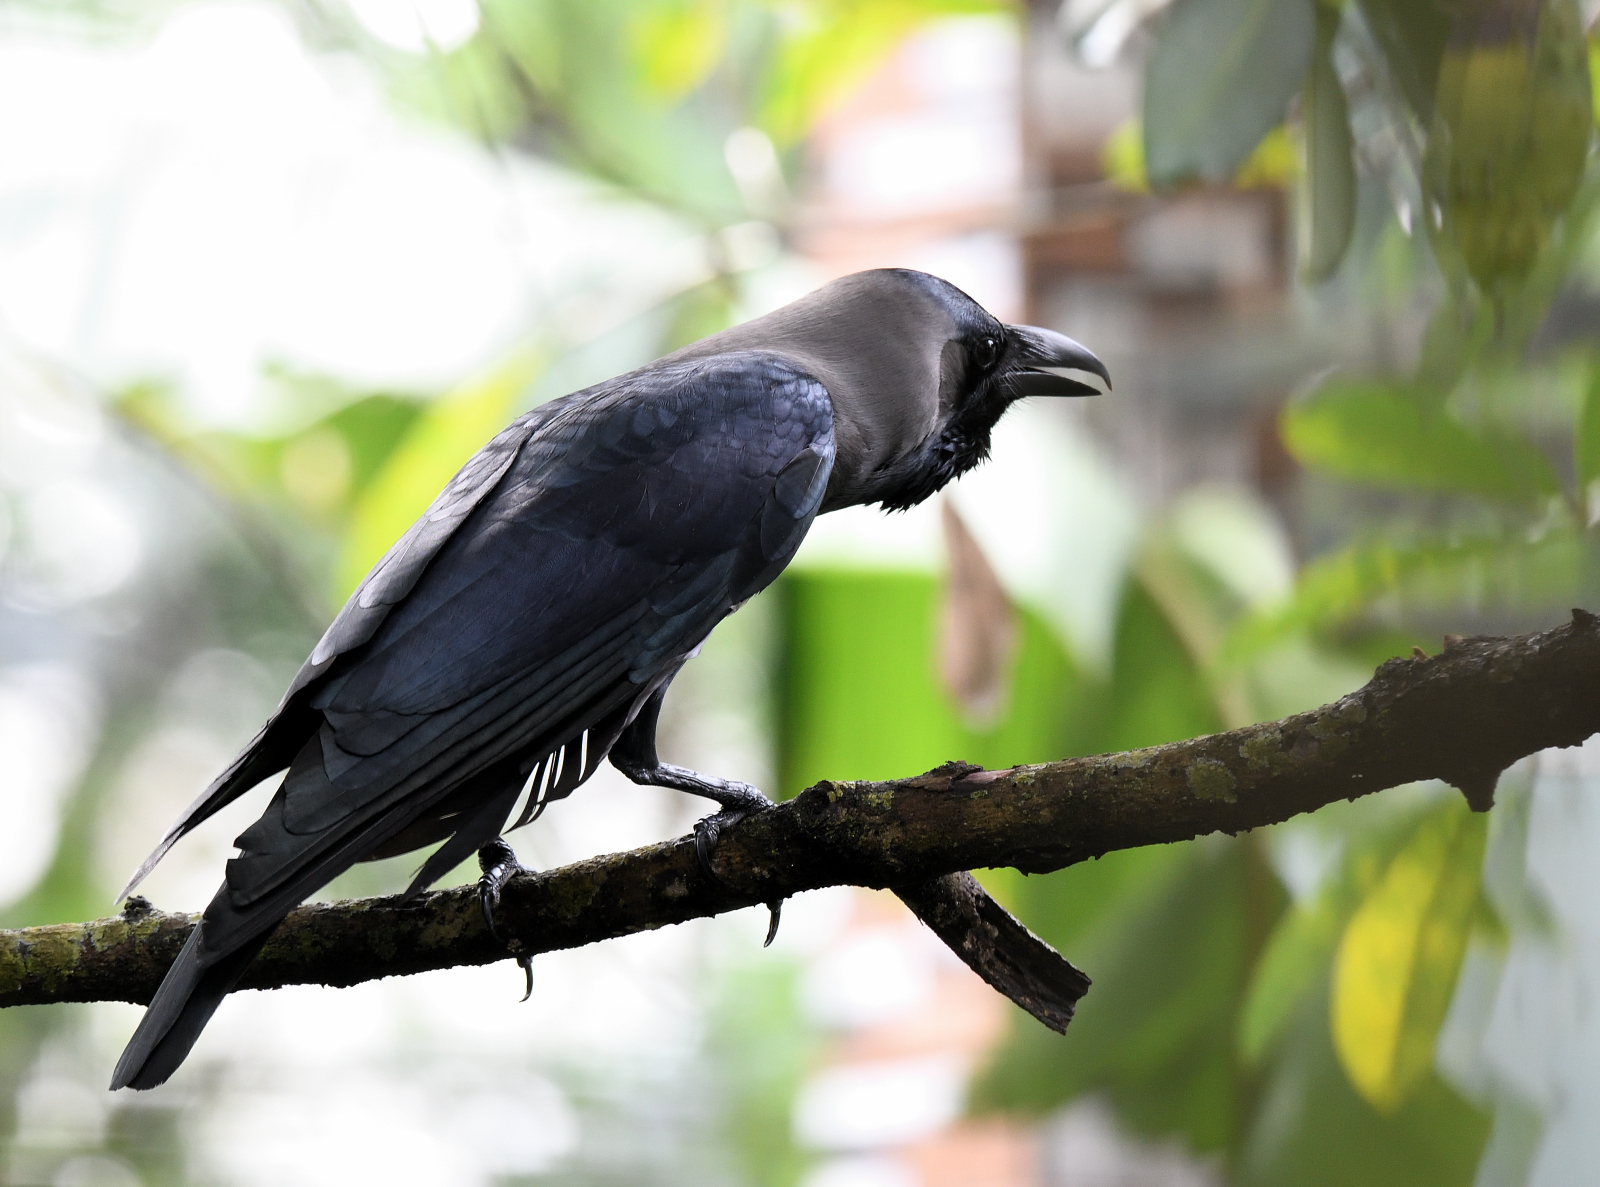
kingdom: Animalia
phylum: Chordata
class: Aves
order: Passeriformes
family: Corvidae
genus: Corvus
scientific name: Corvus splendens
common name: House crow
